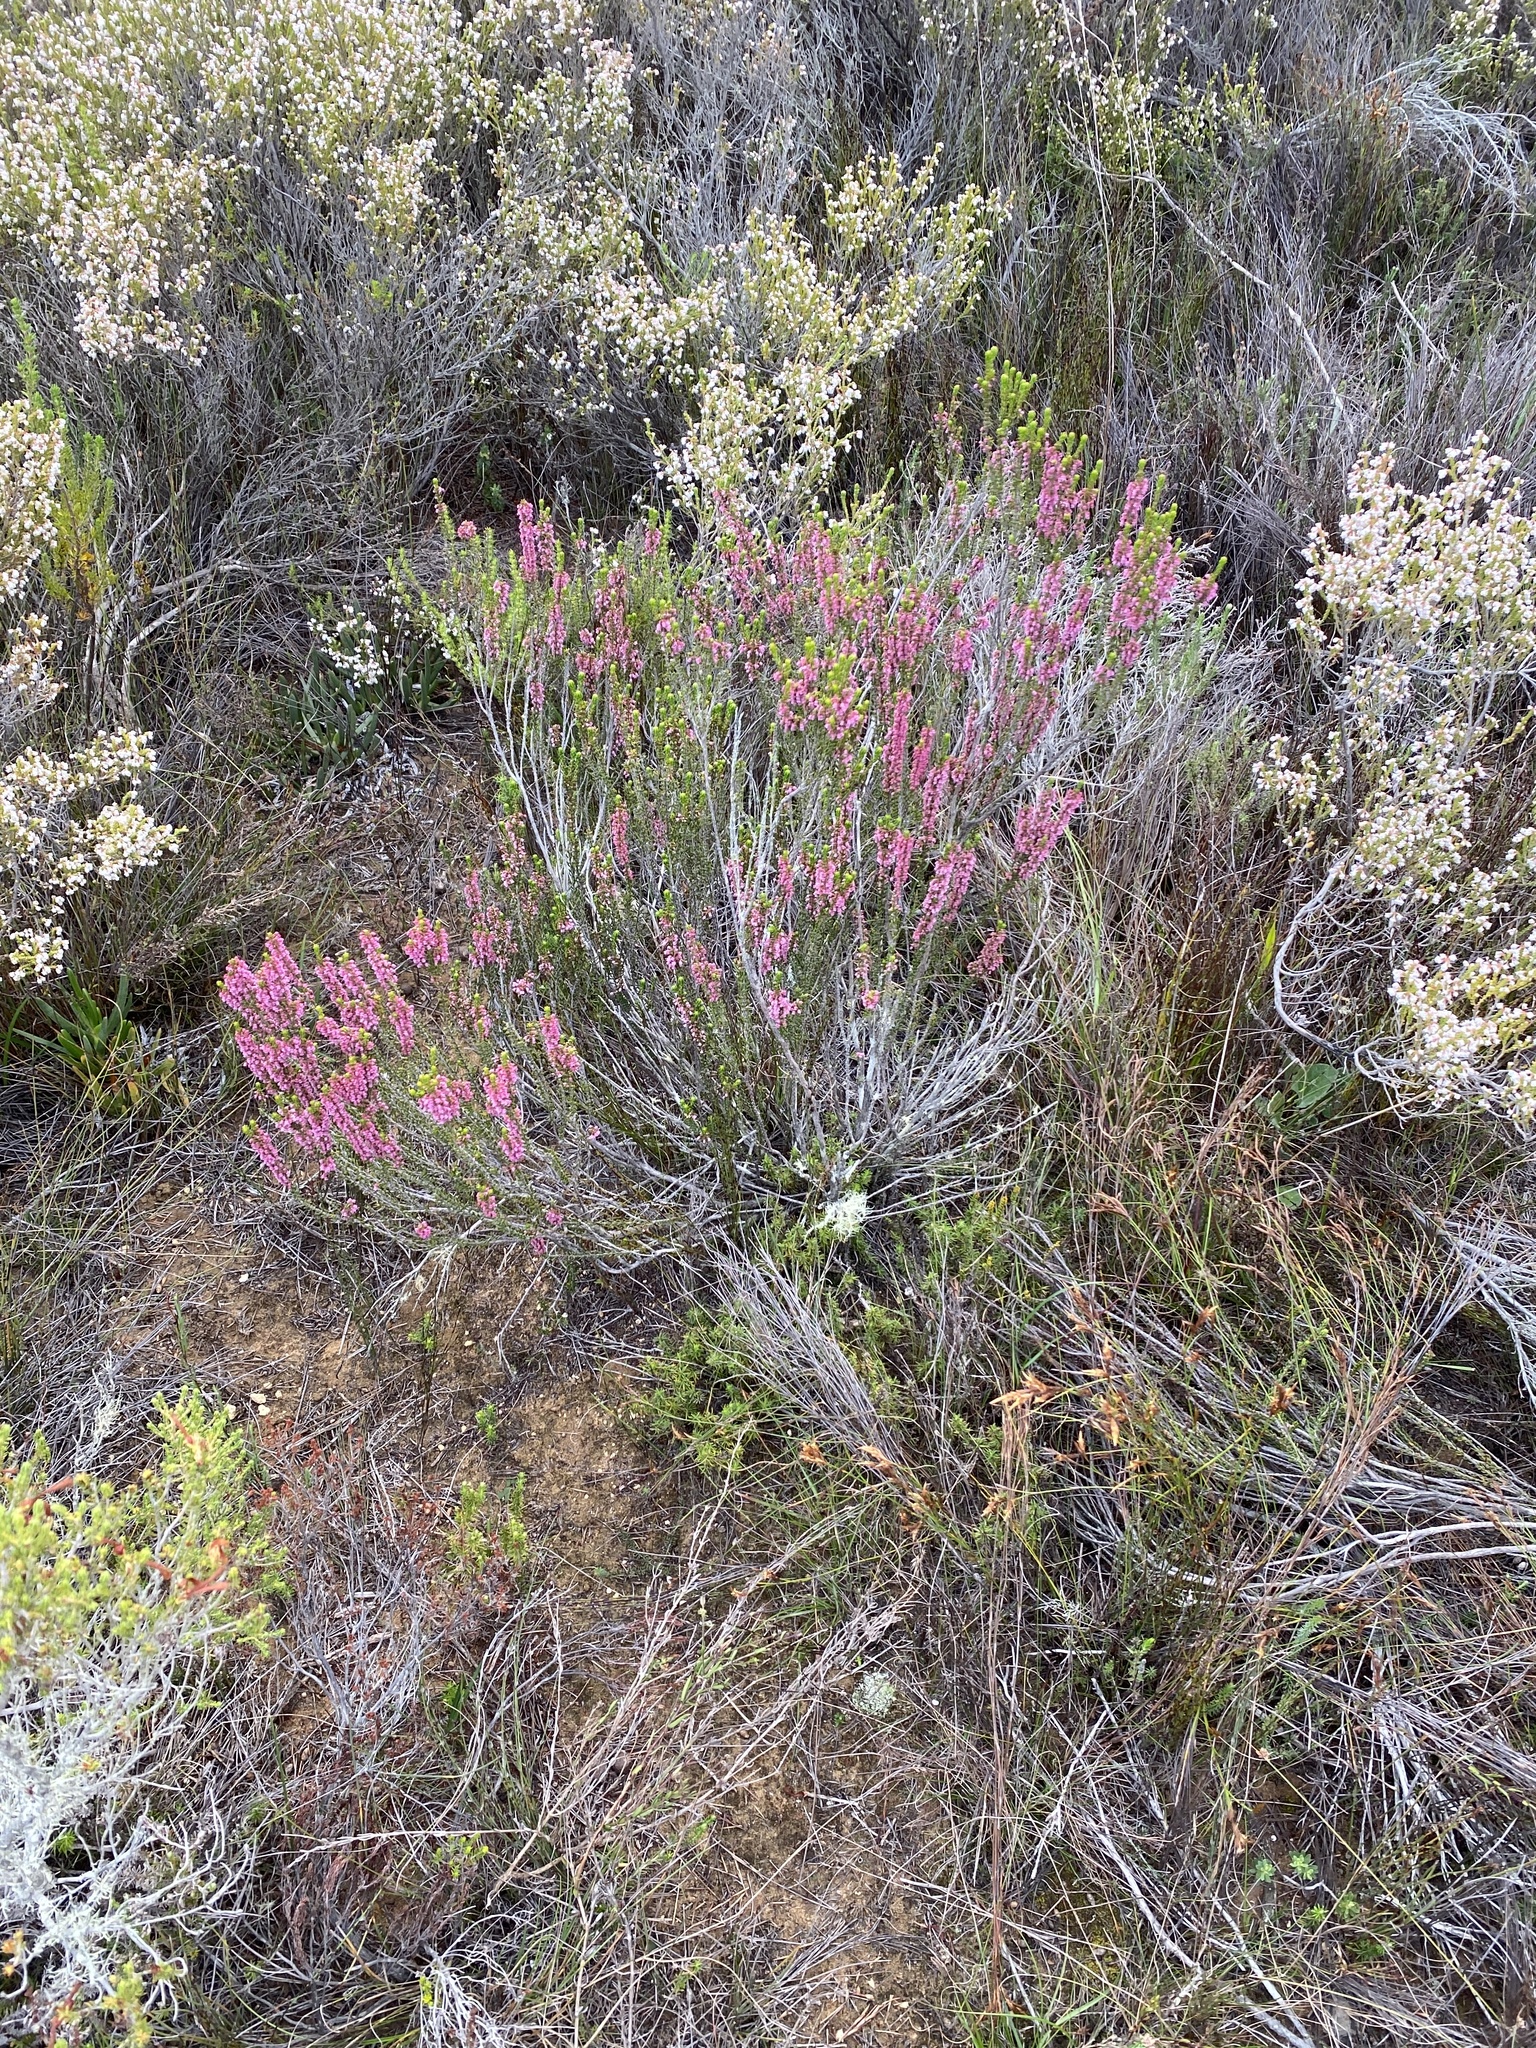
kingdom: Plantae
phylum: Tracheophyta
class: Magnoliopsida
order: Ericales
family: Ericaceae
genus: Erica
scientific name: Erica curtophylla
